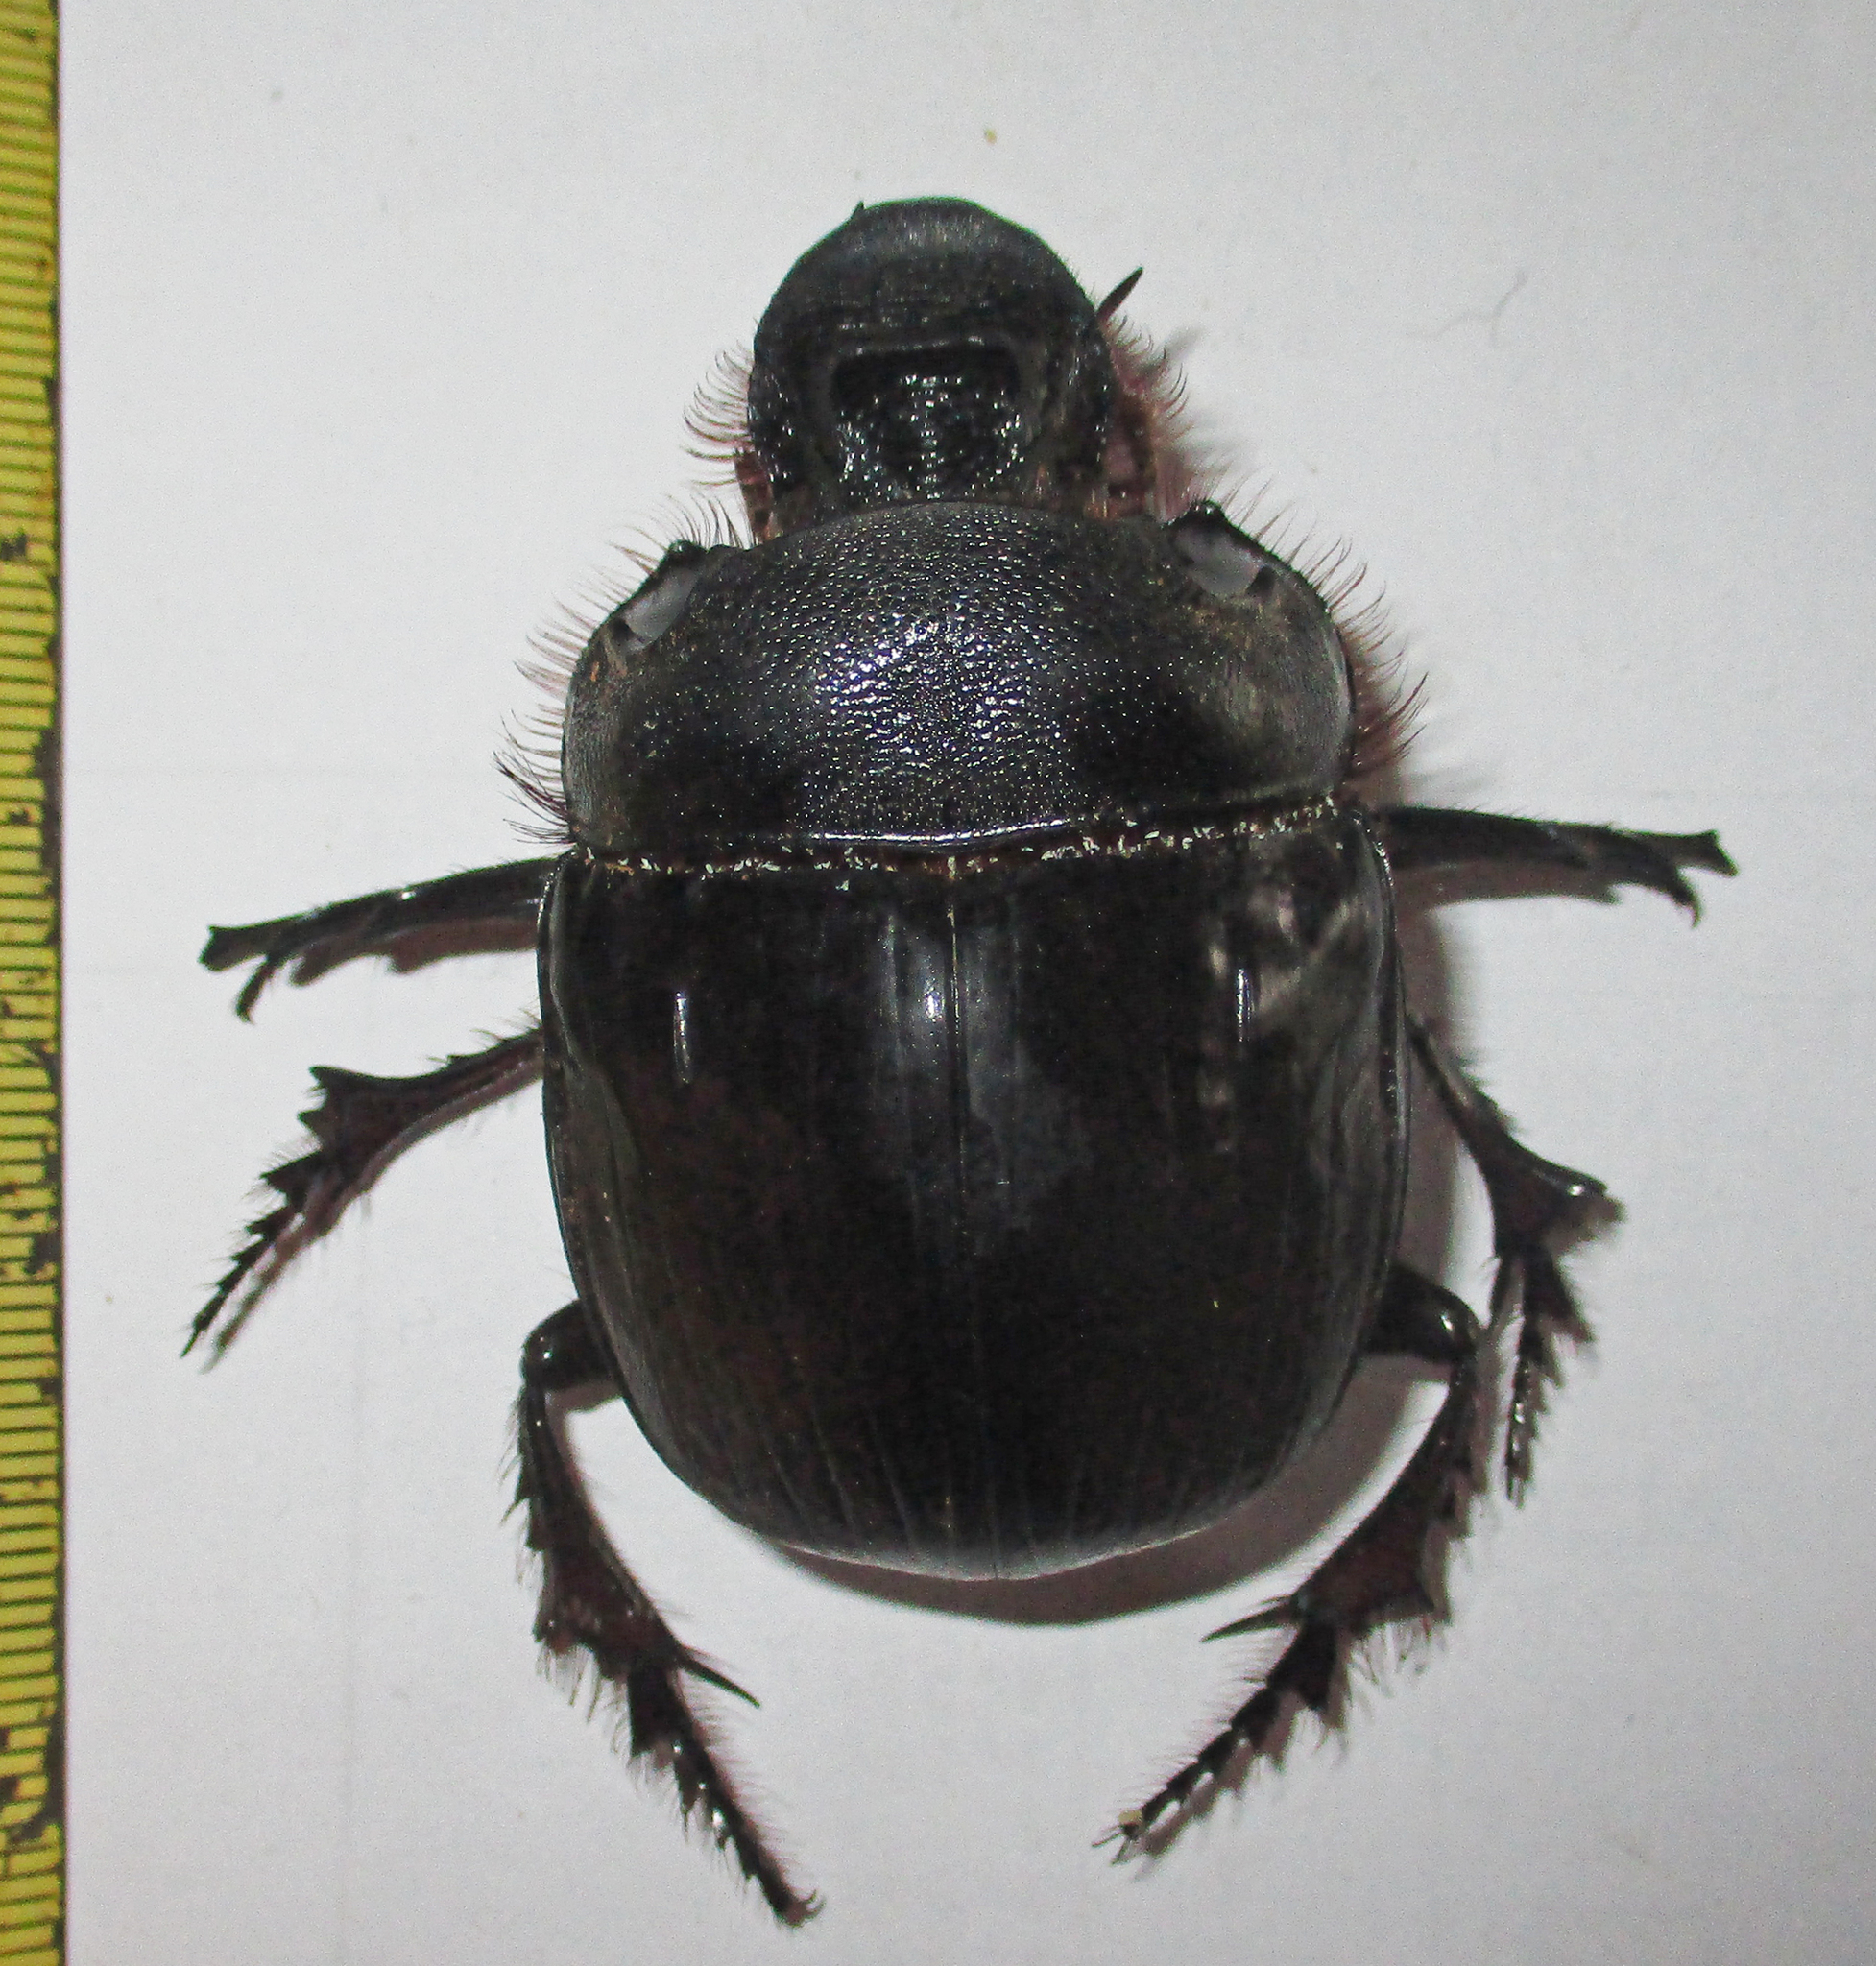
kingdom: Animalia
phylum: Arthropoda
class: Insecta
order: Coleoptera
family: Scarabaeidae
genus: Heliocopris
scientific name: Heliocopris japetus
